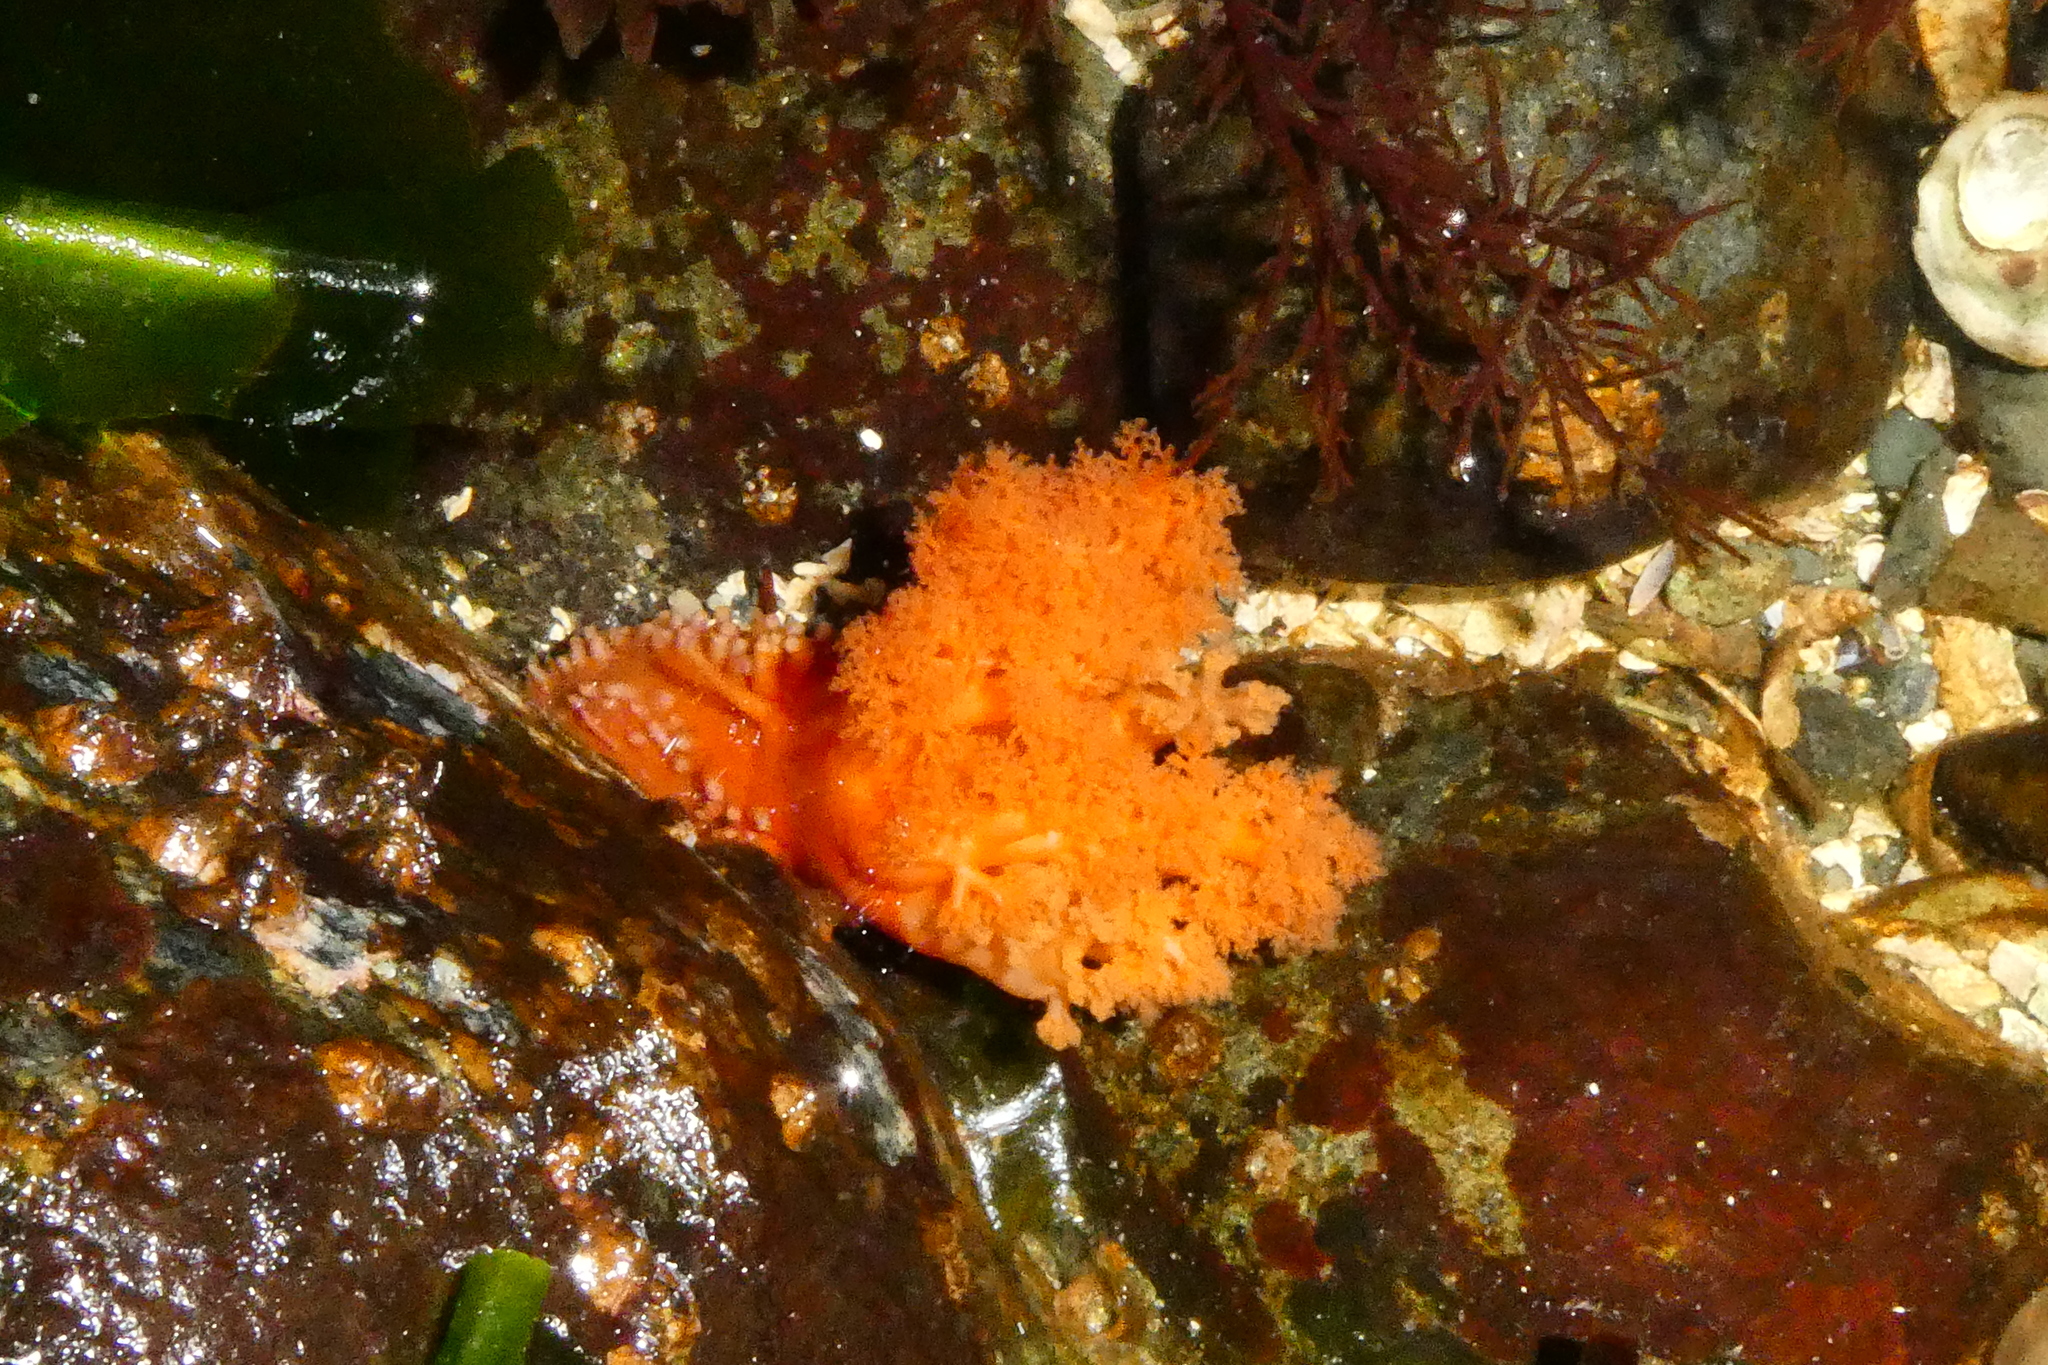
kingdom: Animalia
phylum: Echinodermata
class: Holothuroidea
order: Dendrochirotida
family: Cucumariidae
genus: Cucumaria
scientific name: Cucumaria miniata
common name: Orange sea cucumber
